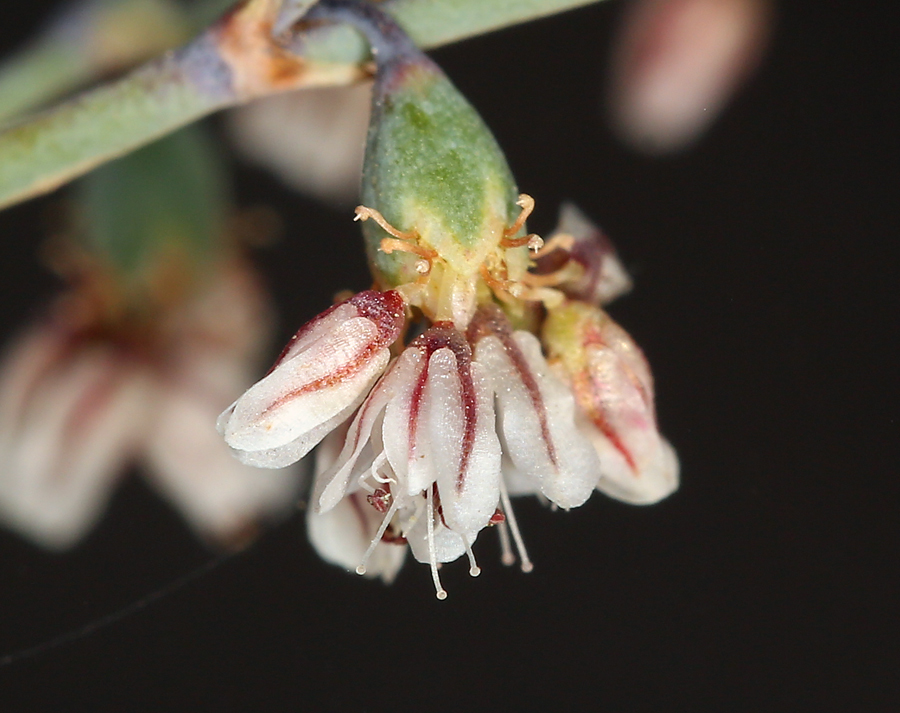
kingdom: Plantae
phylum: Tracheophyta
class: Magnoliopsida
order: Caryophyllales
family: Polygonaceae
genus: Eriogonum
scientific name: Eriogonum deflexum
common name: Skeleton-weed
